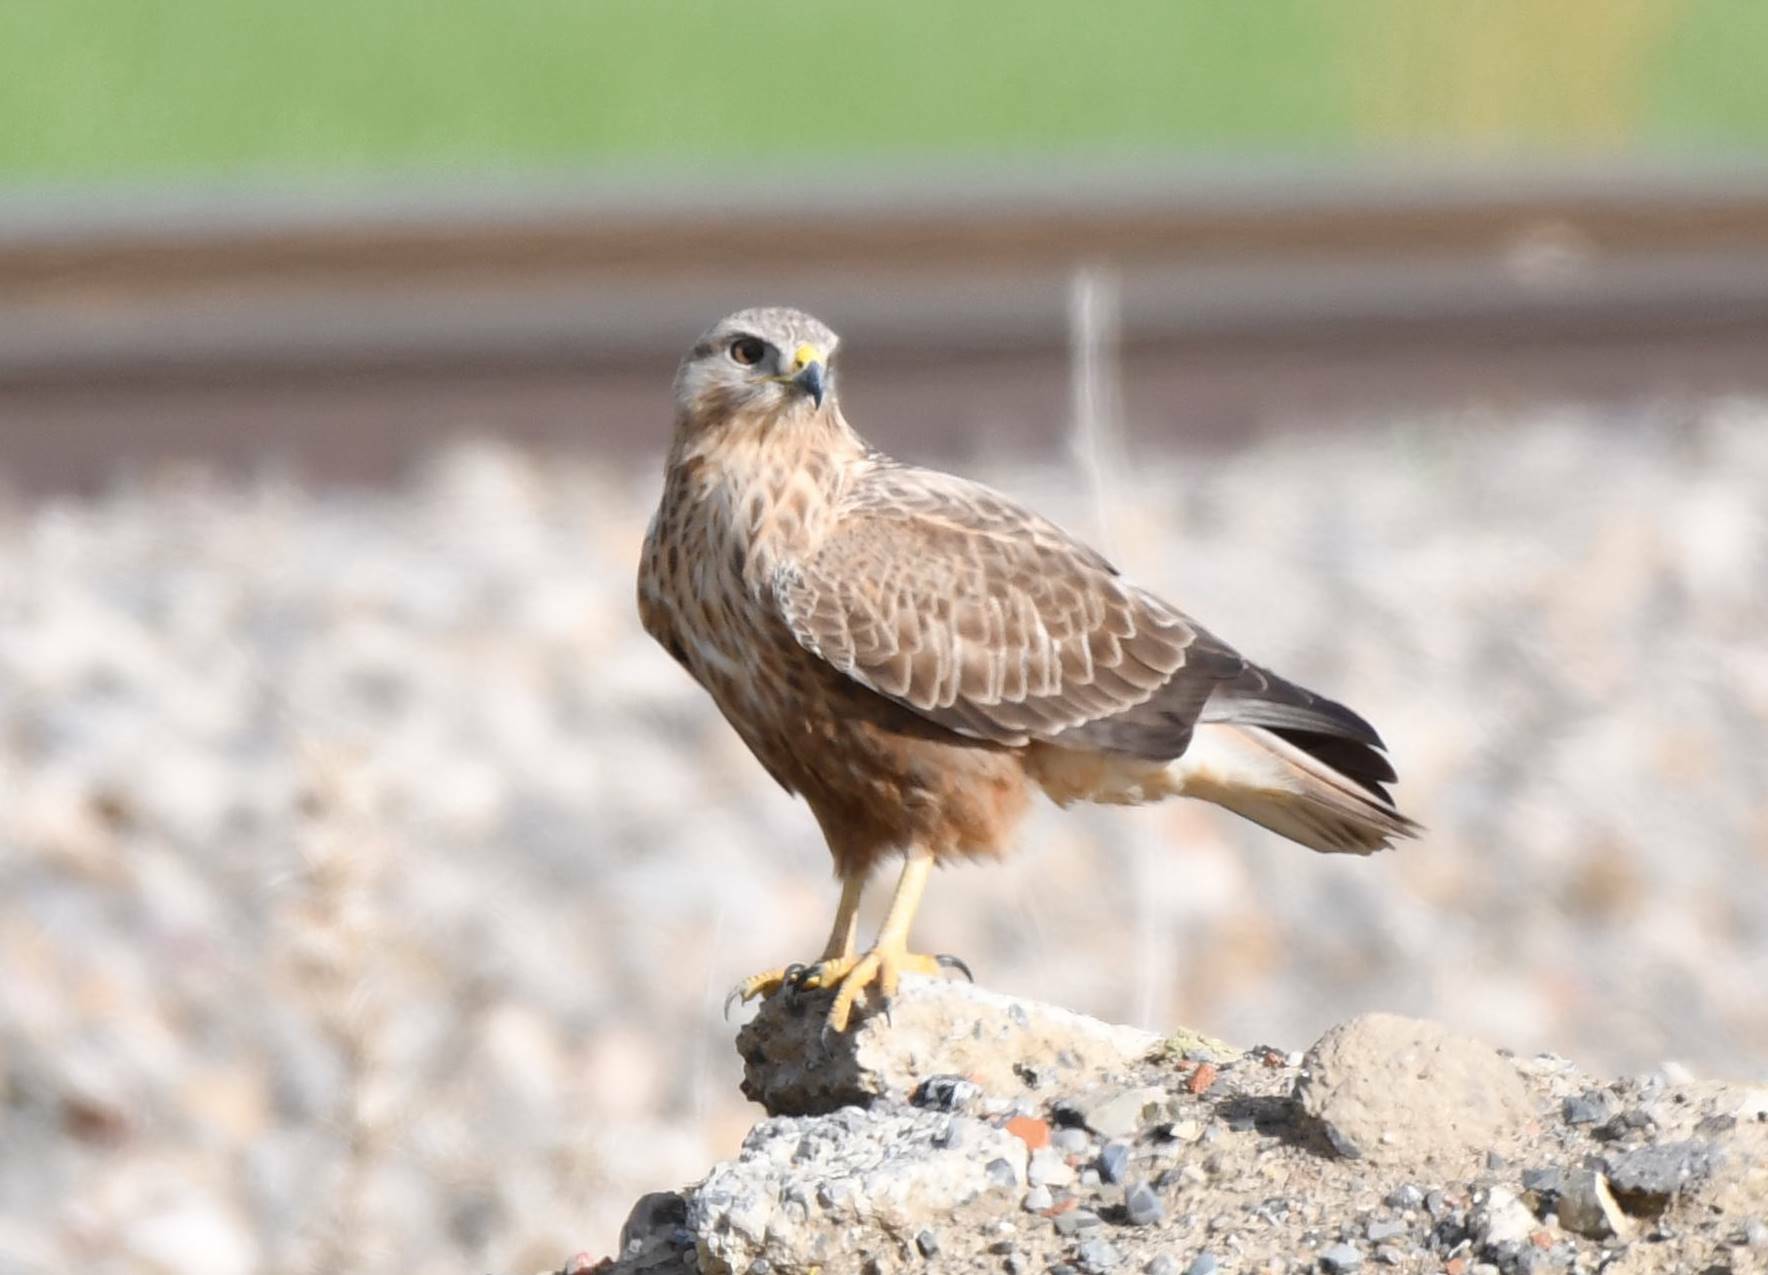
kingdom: Animalia
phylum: Chordata
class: Aves
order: Accipitriformes
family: Accipitridae
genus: Buteo
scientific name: Buteo rufinus
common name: Long-legged buzzard
